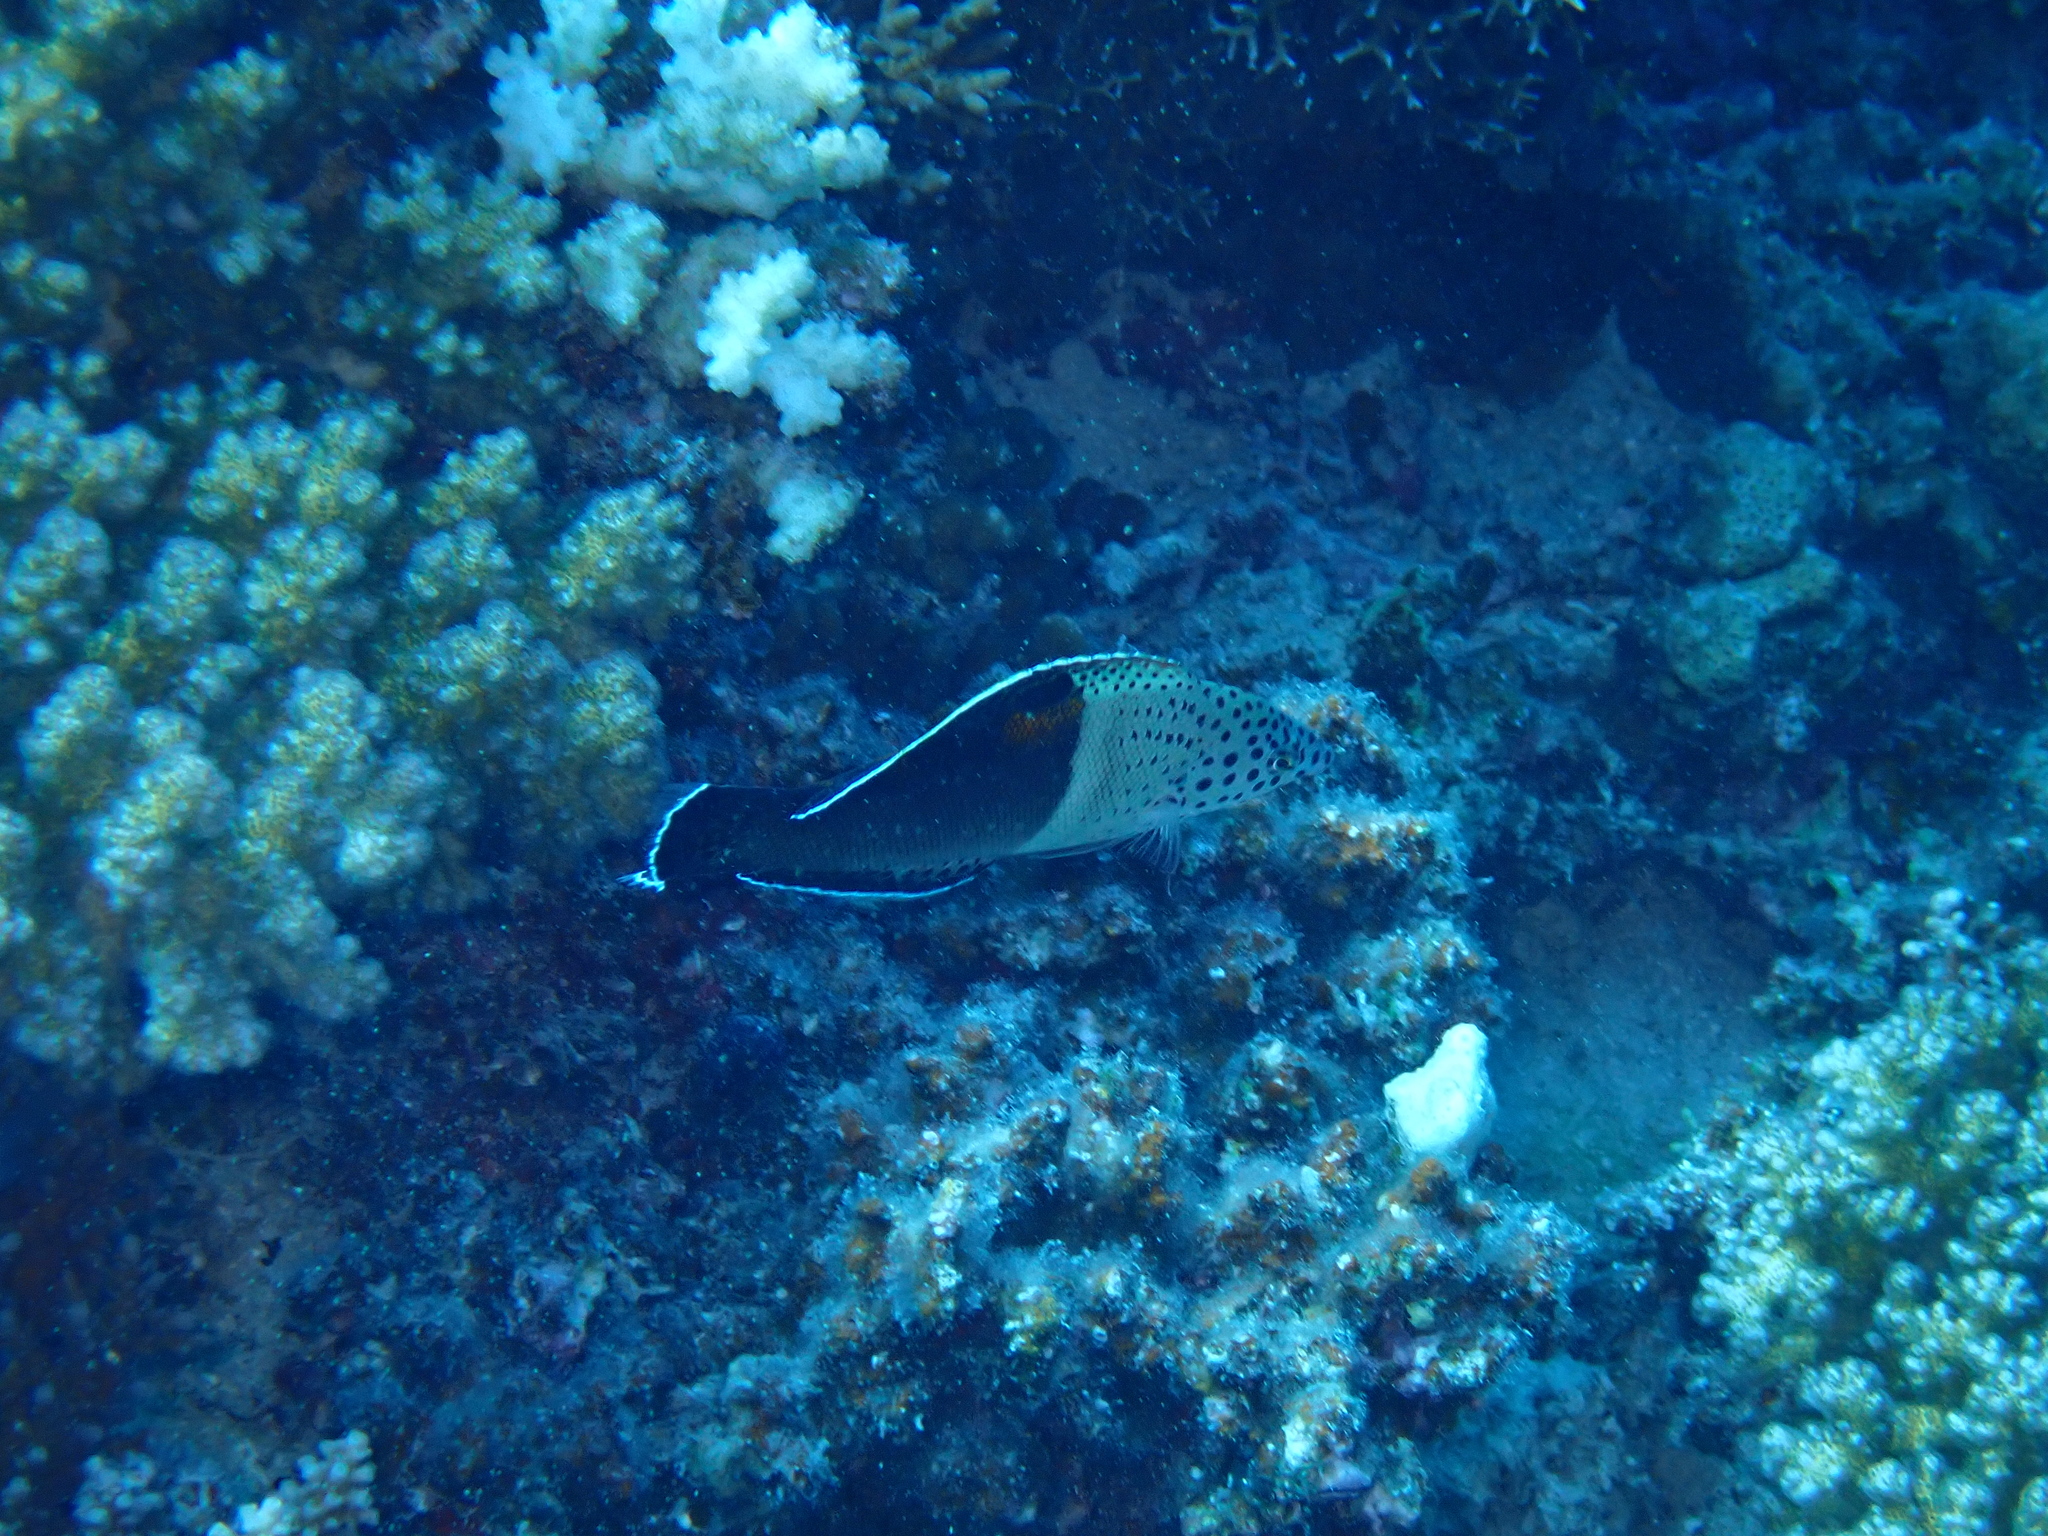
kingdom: Animalia
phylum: Chordata
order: Perciformes
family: Labridae
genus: Coris
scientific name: Coris aygula
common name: Clown coris
